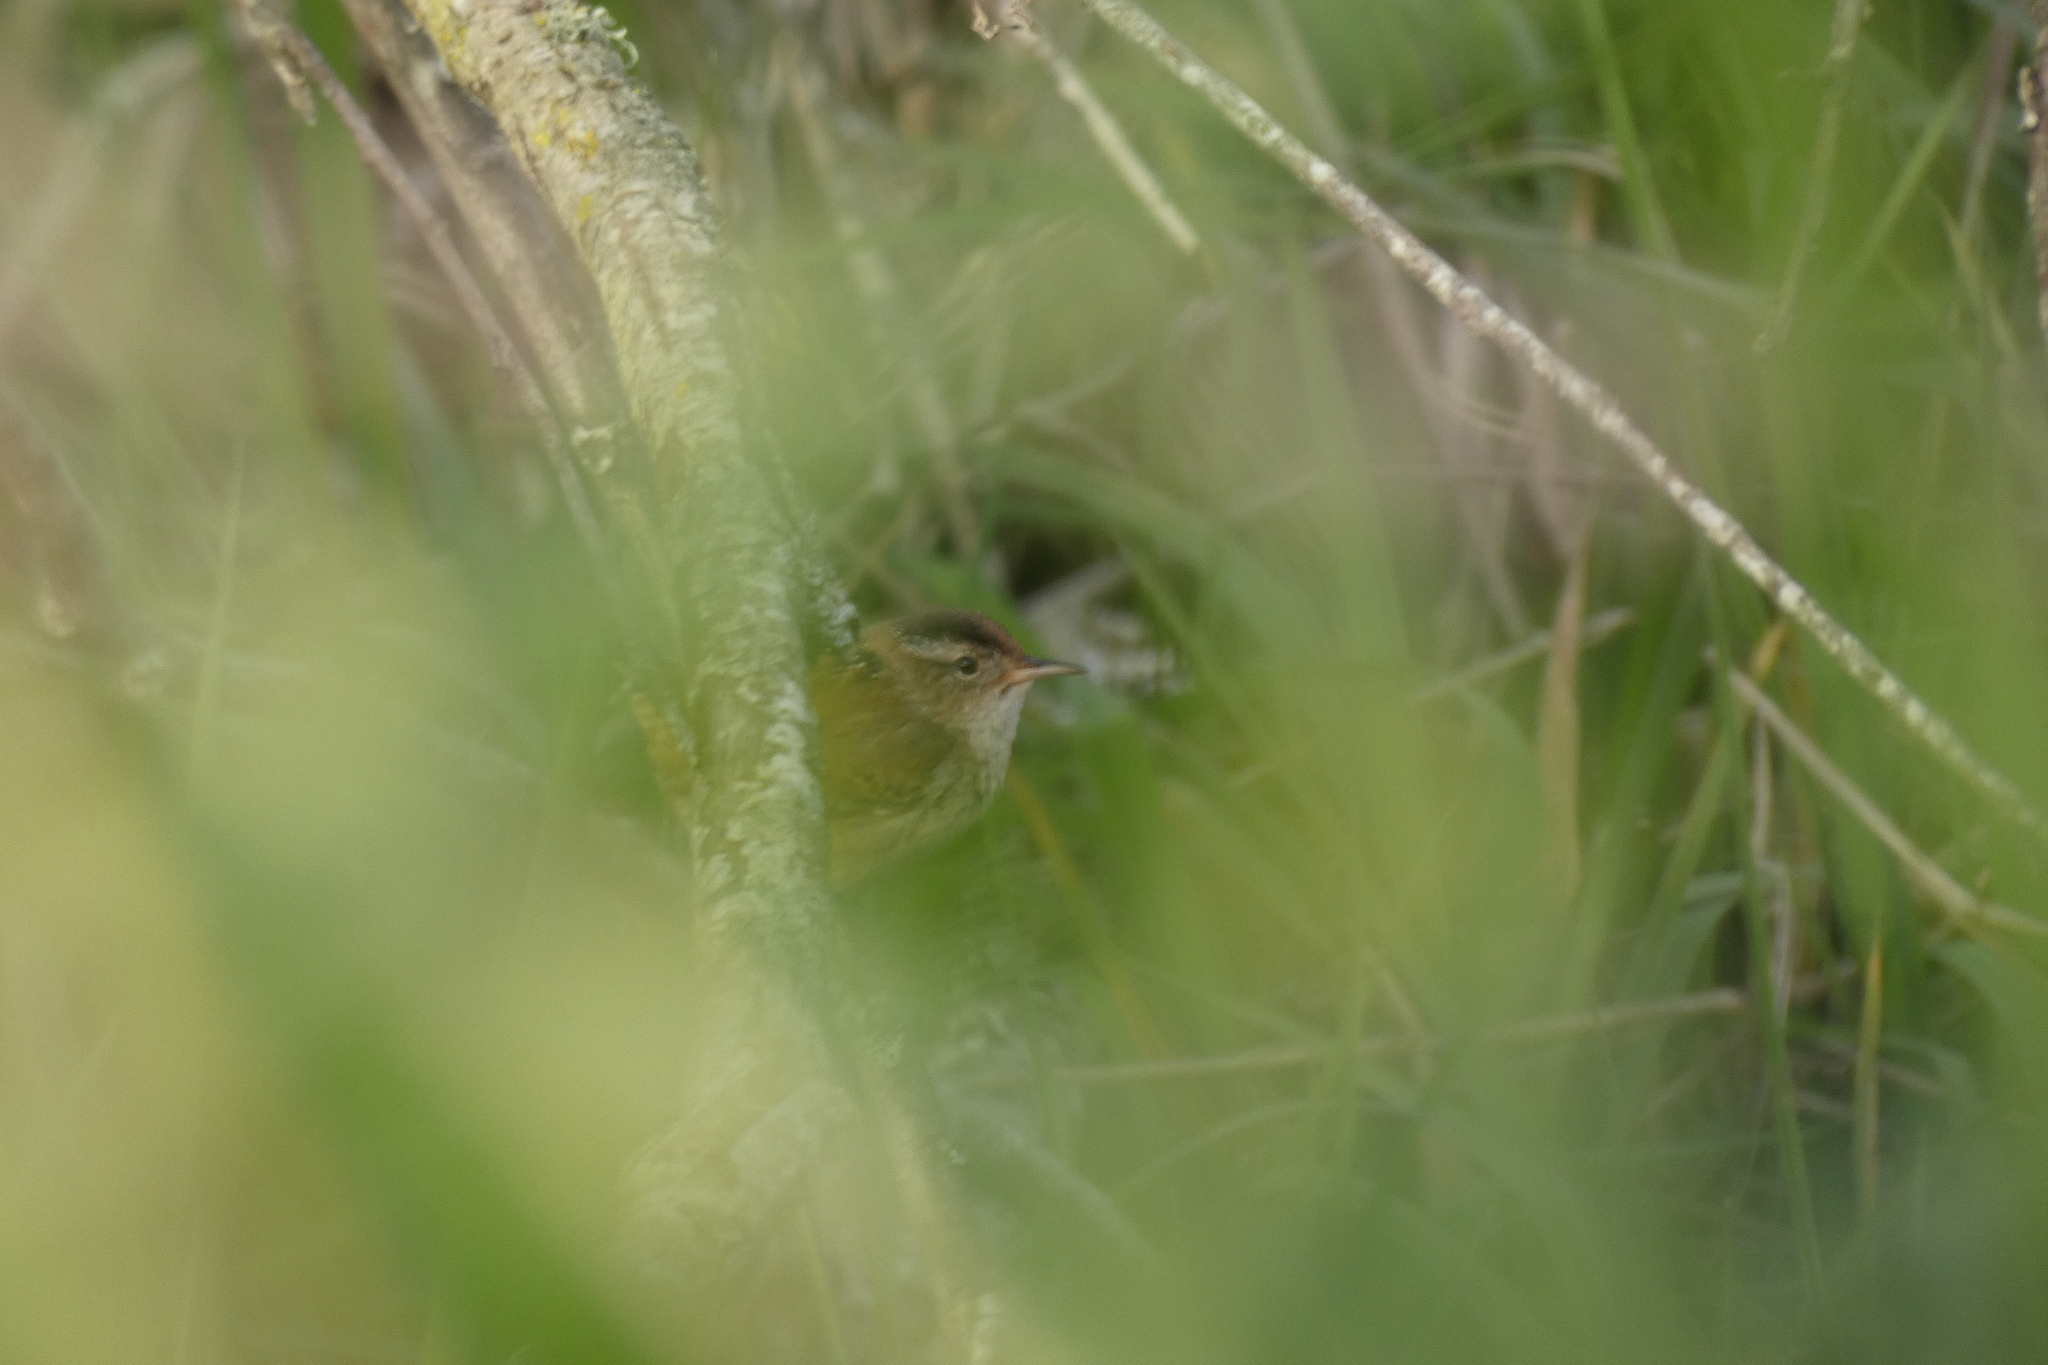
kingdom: Animalia
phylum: Chordata
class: Aves
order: Passeriformes
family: Troglodytidae
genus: Cistothorus
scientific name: Cistothorus palustris
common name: Marsh wren
